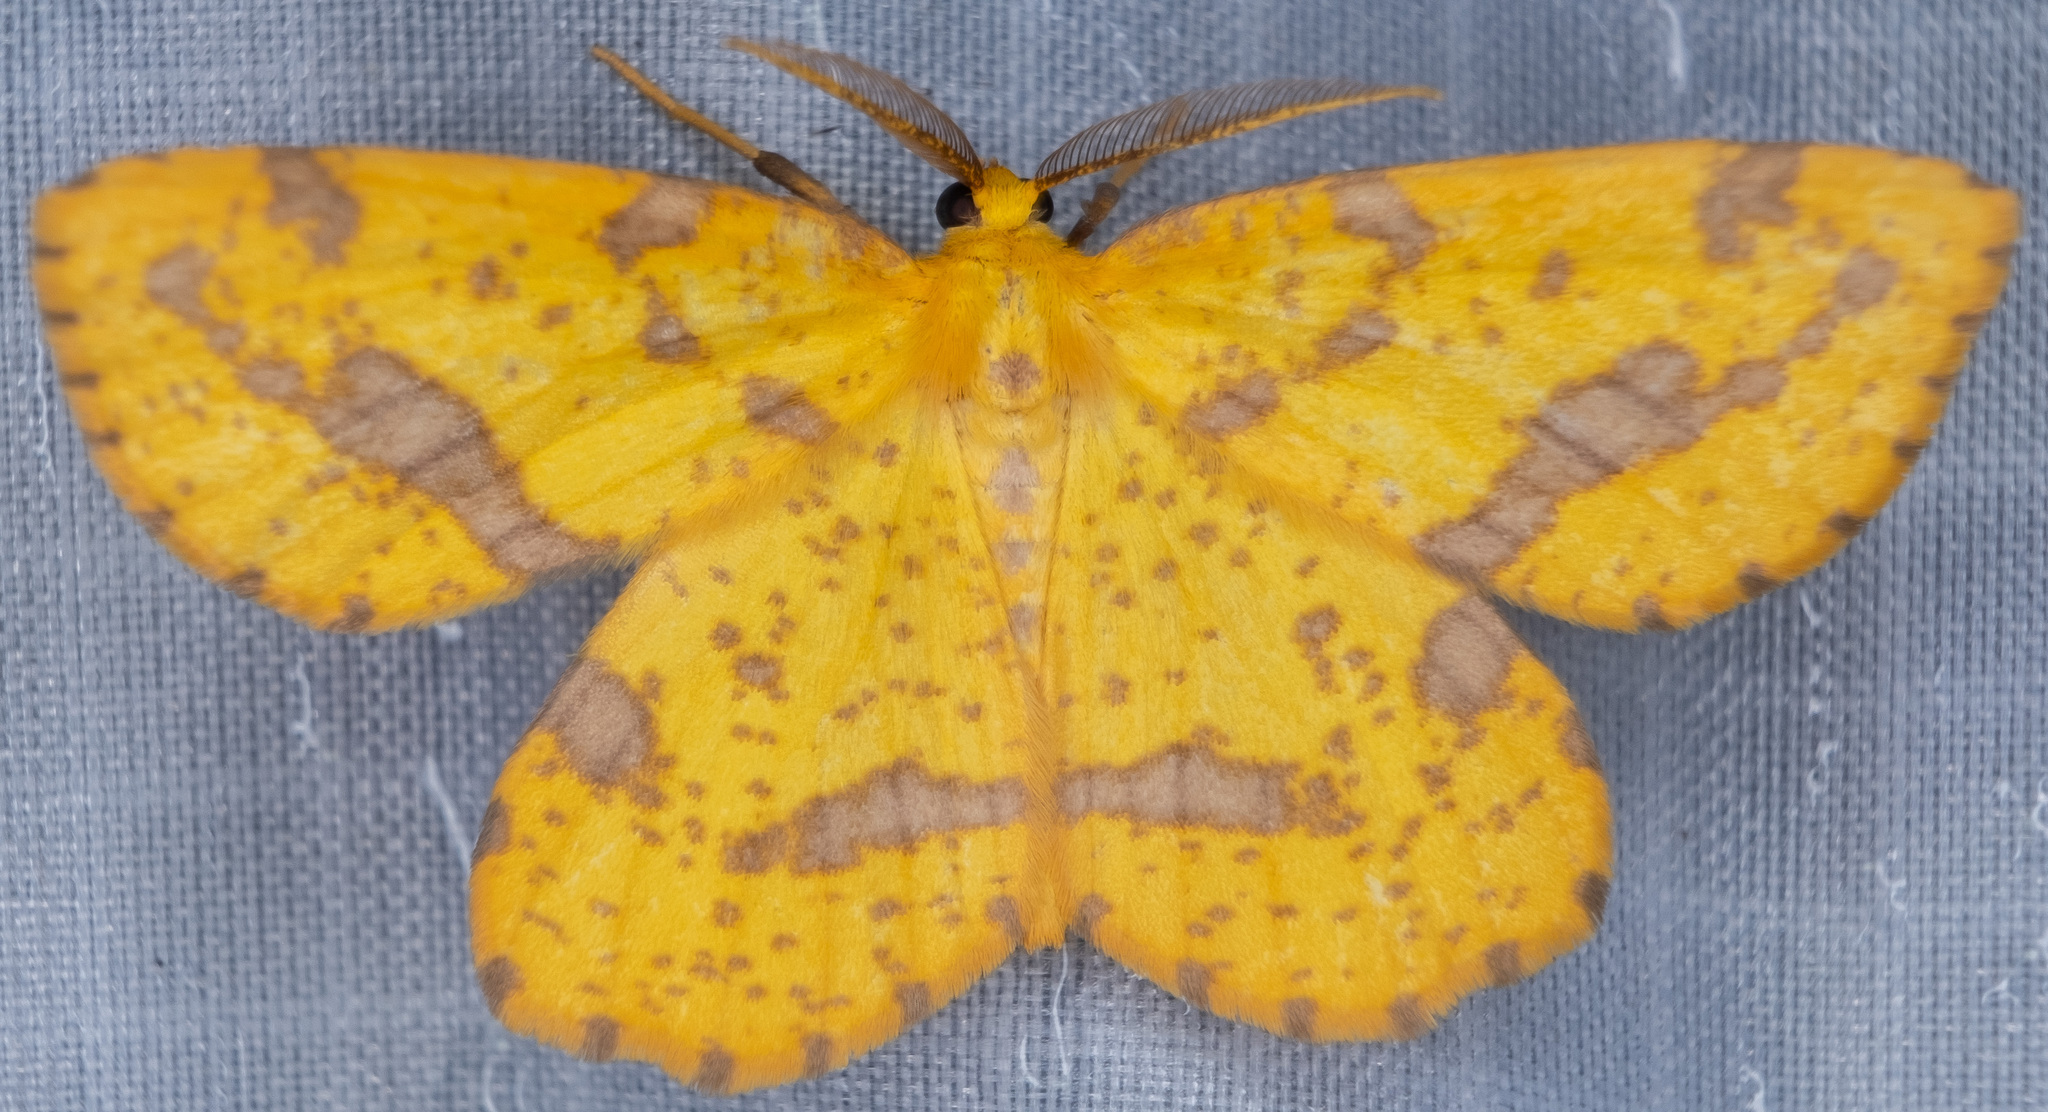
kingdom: Animalia
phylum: Arthropoda
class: Insecta
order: Lepidoptera
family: Geometridae
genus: Xanthotype
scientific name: Xanthotype
